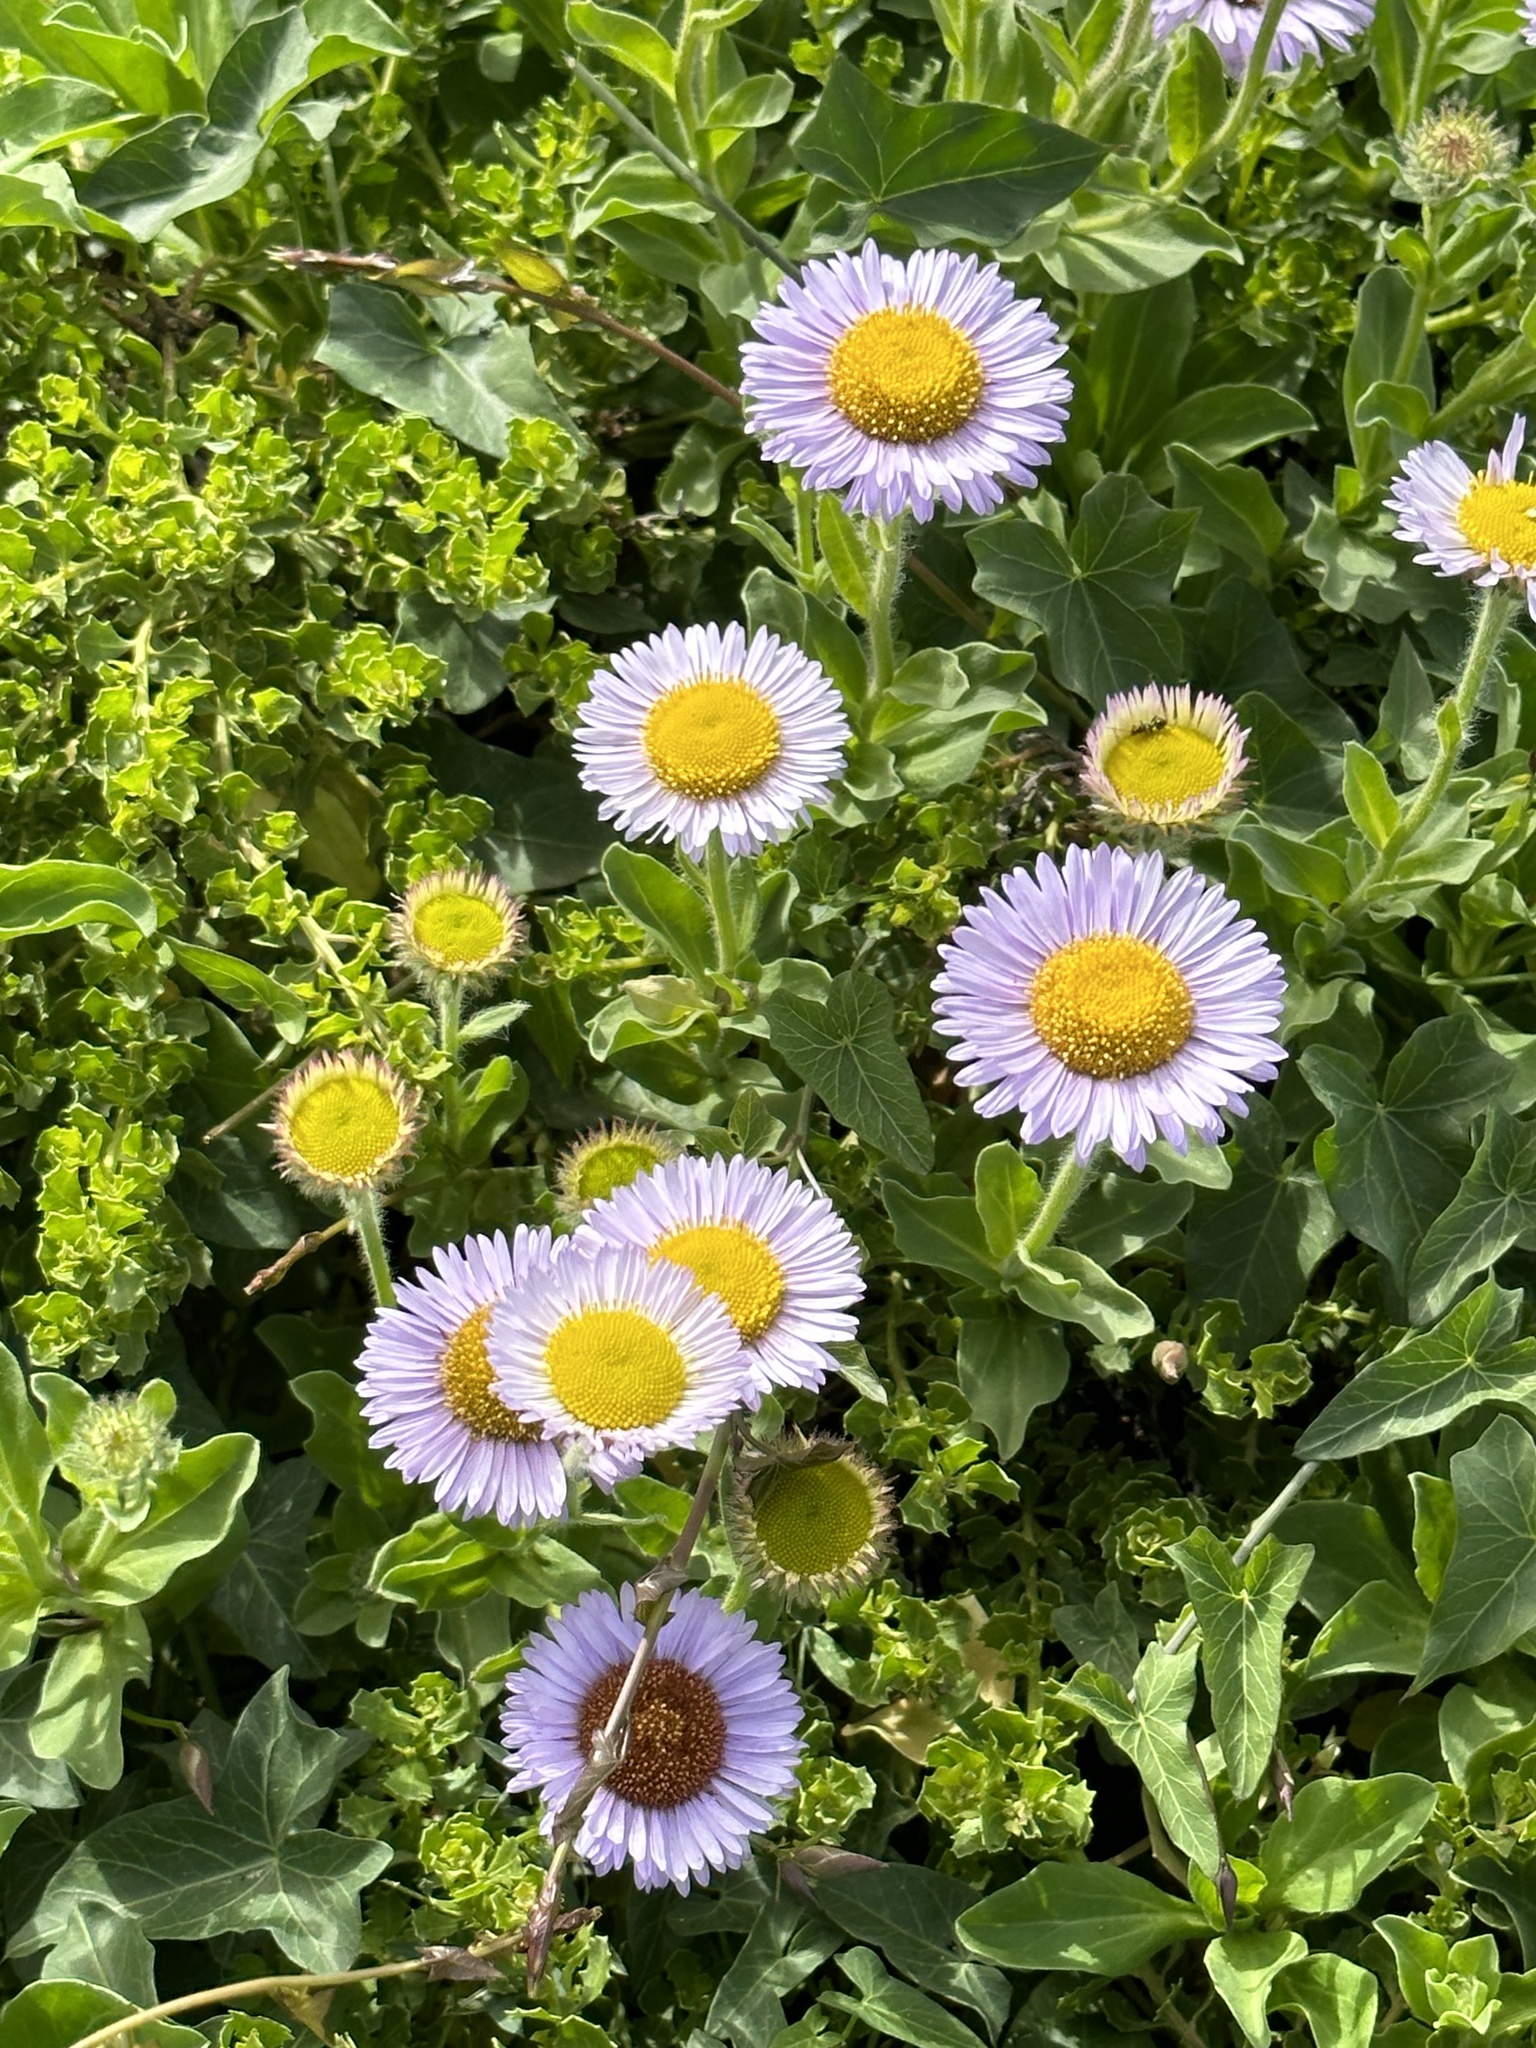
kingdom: Plantae
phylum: Tracheophyta
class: Magnoliopsida
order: Asterales
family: Asteraceae
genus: Erigeron
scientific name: Erigeron glaucus
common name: Seaside daisy
